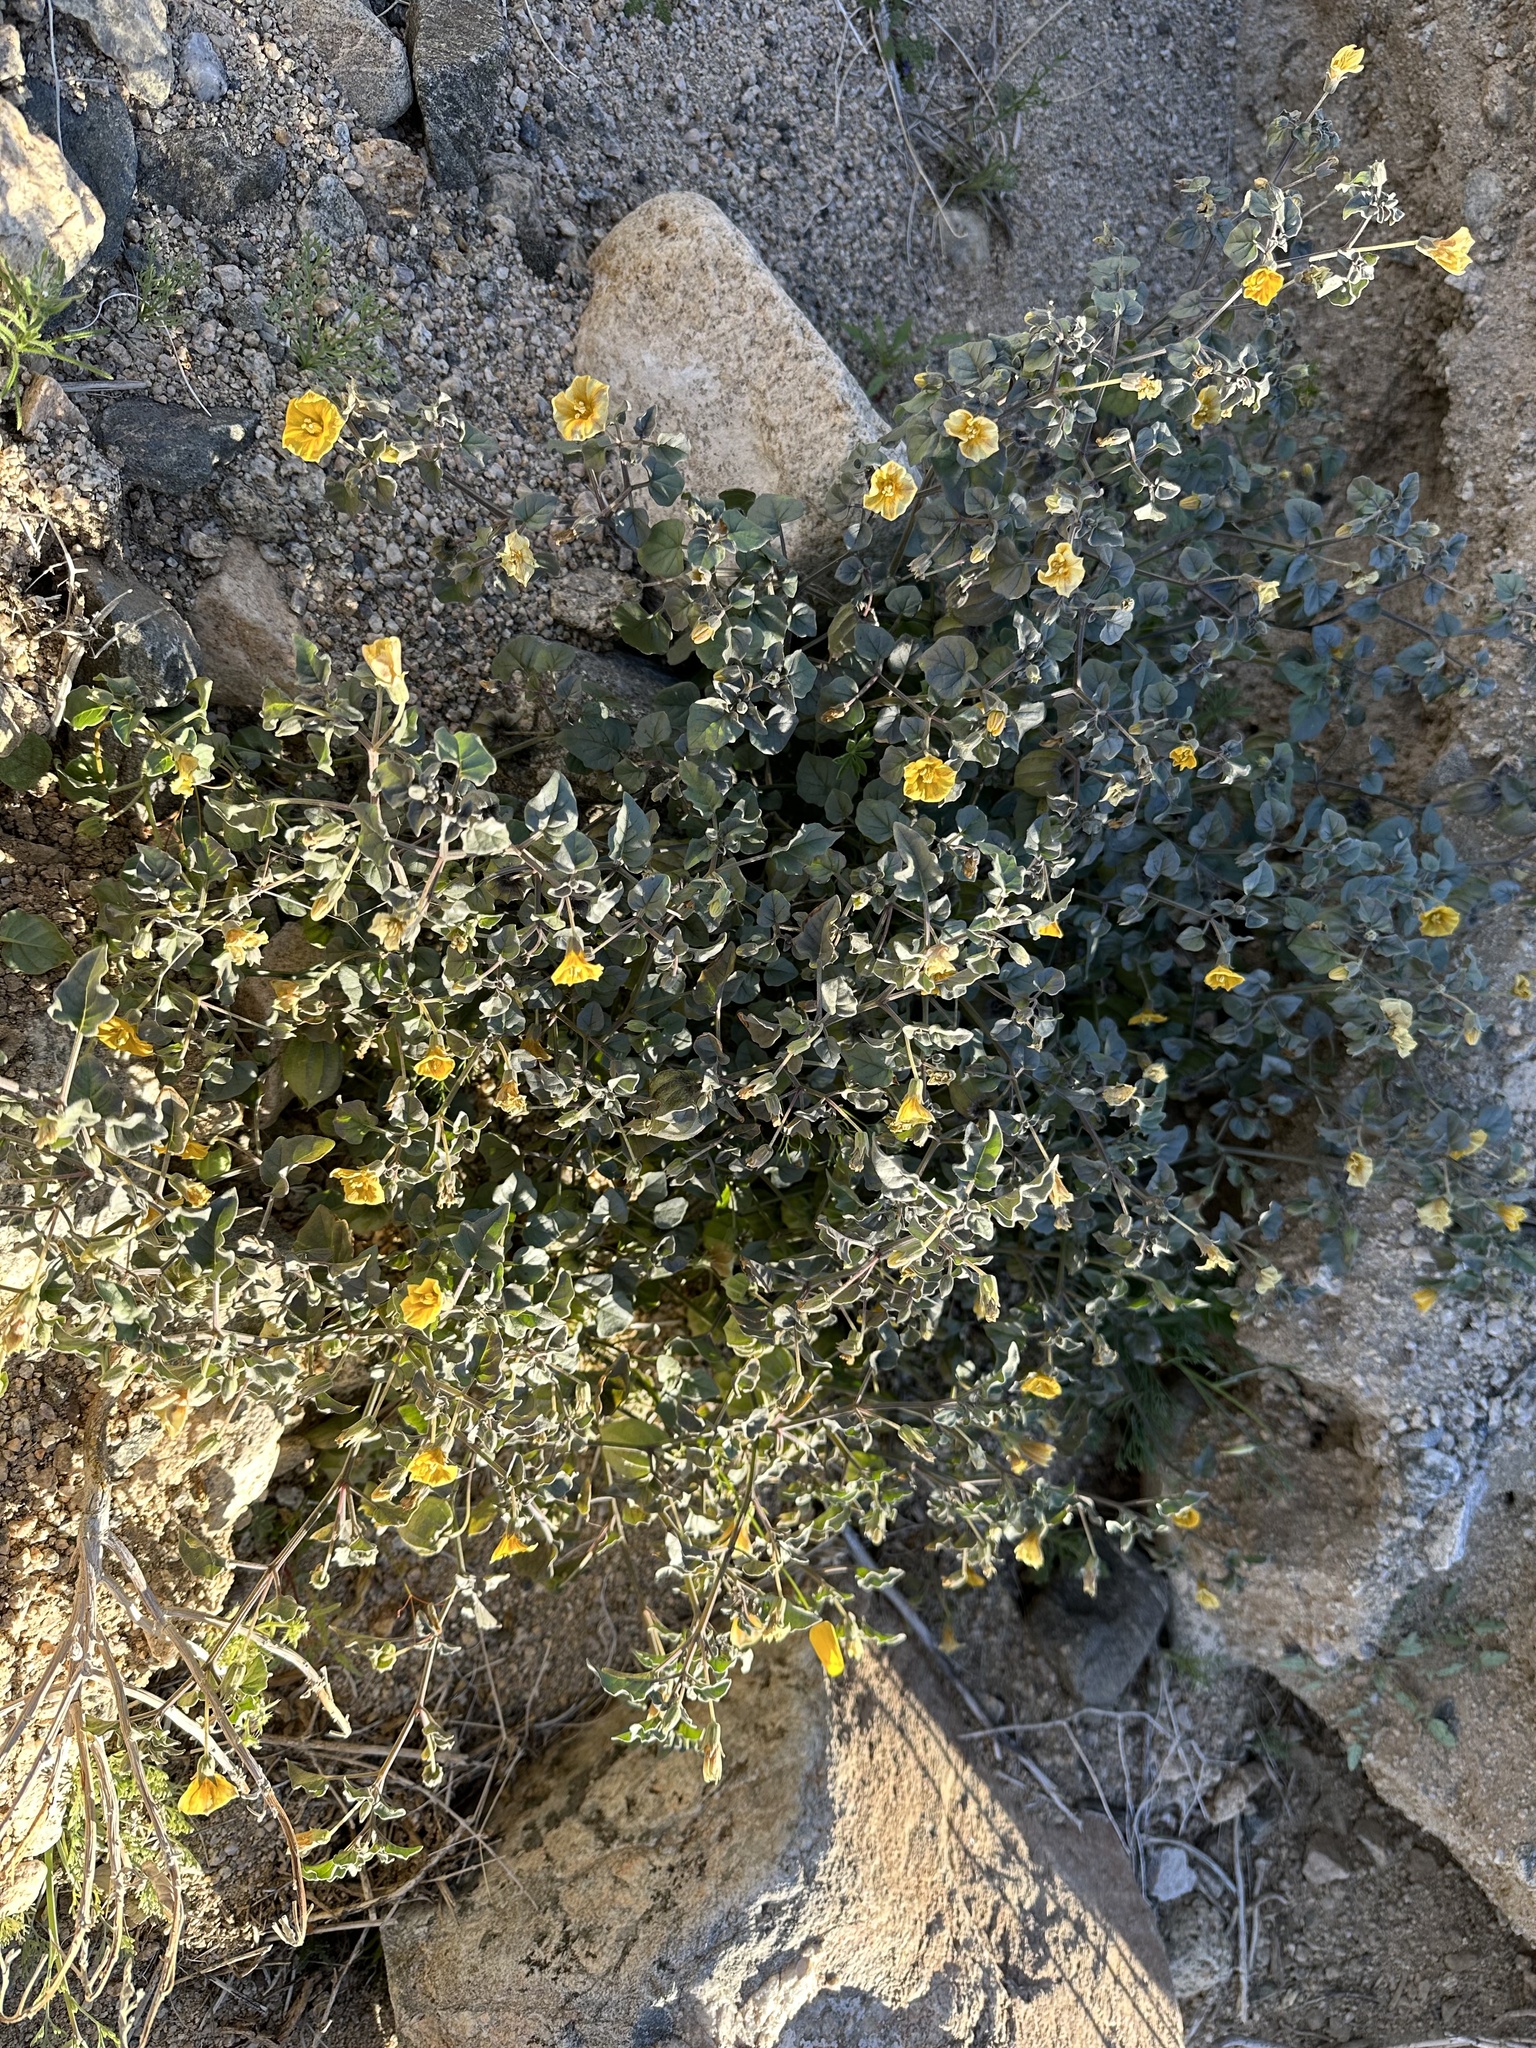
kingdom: Plantae
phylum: Tracheophyta
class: Magnoliopsida
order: Solanales
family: Solanaceae
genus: Physalis
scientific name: Physalis crassifolia
